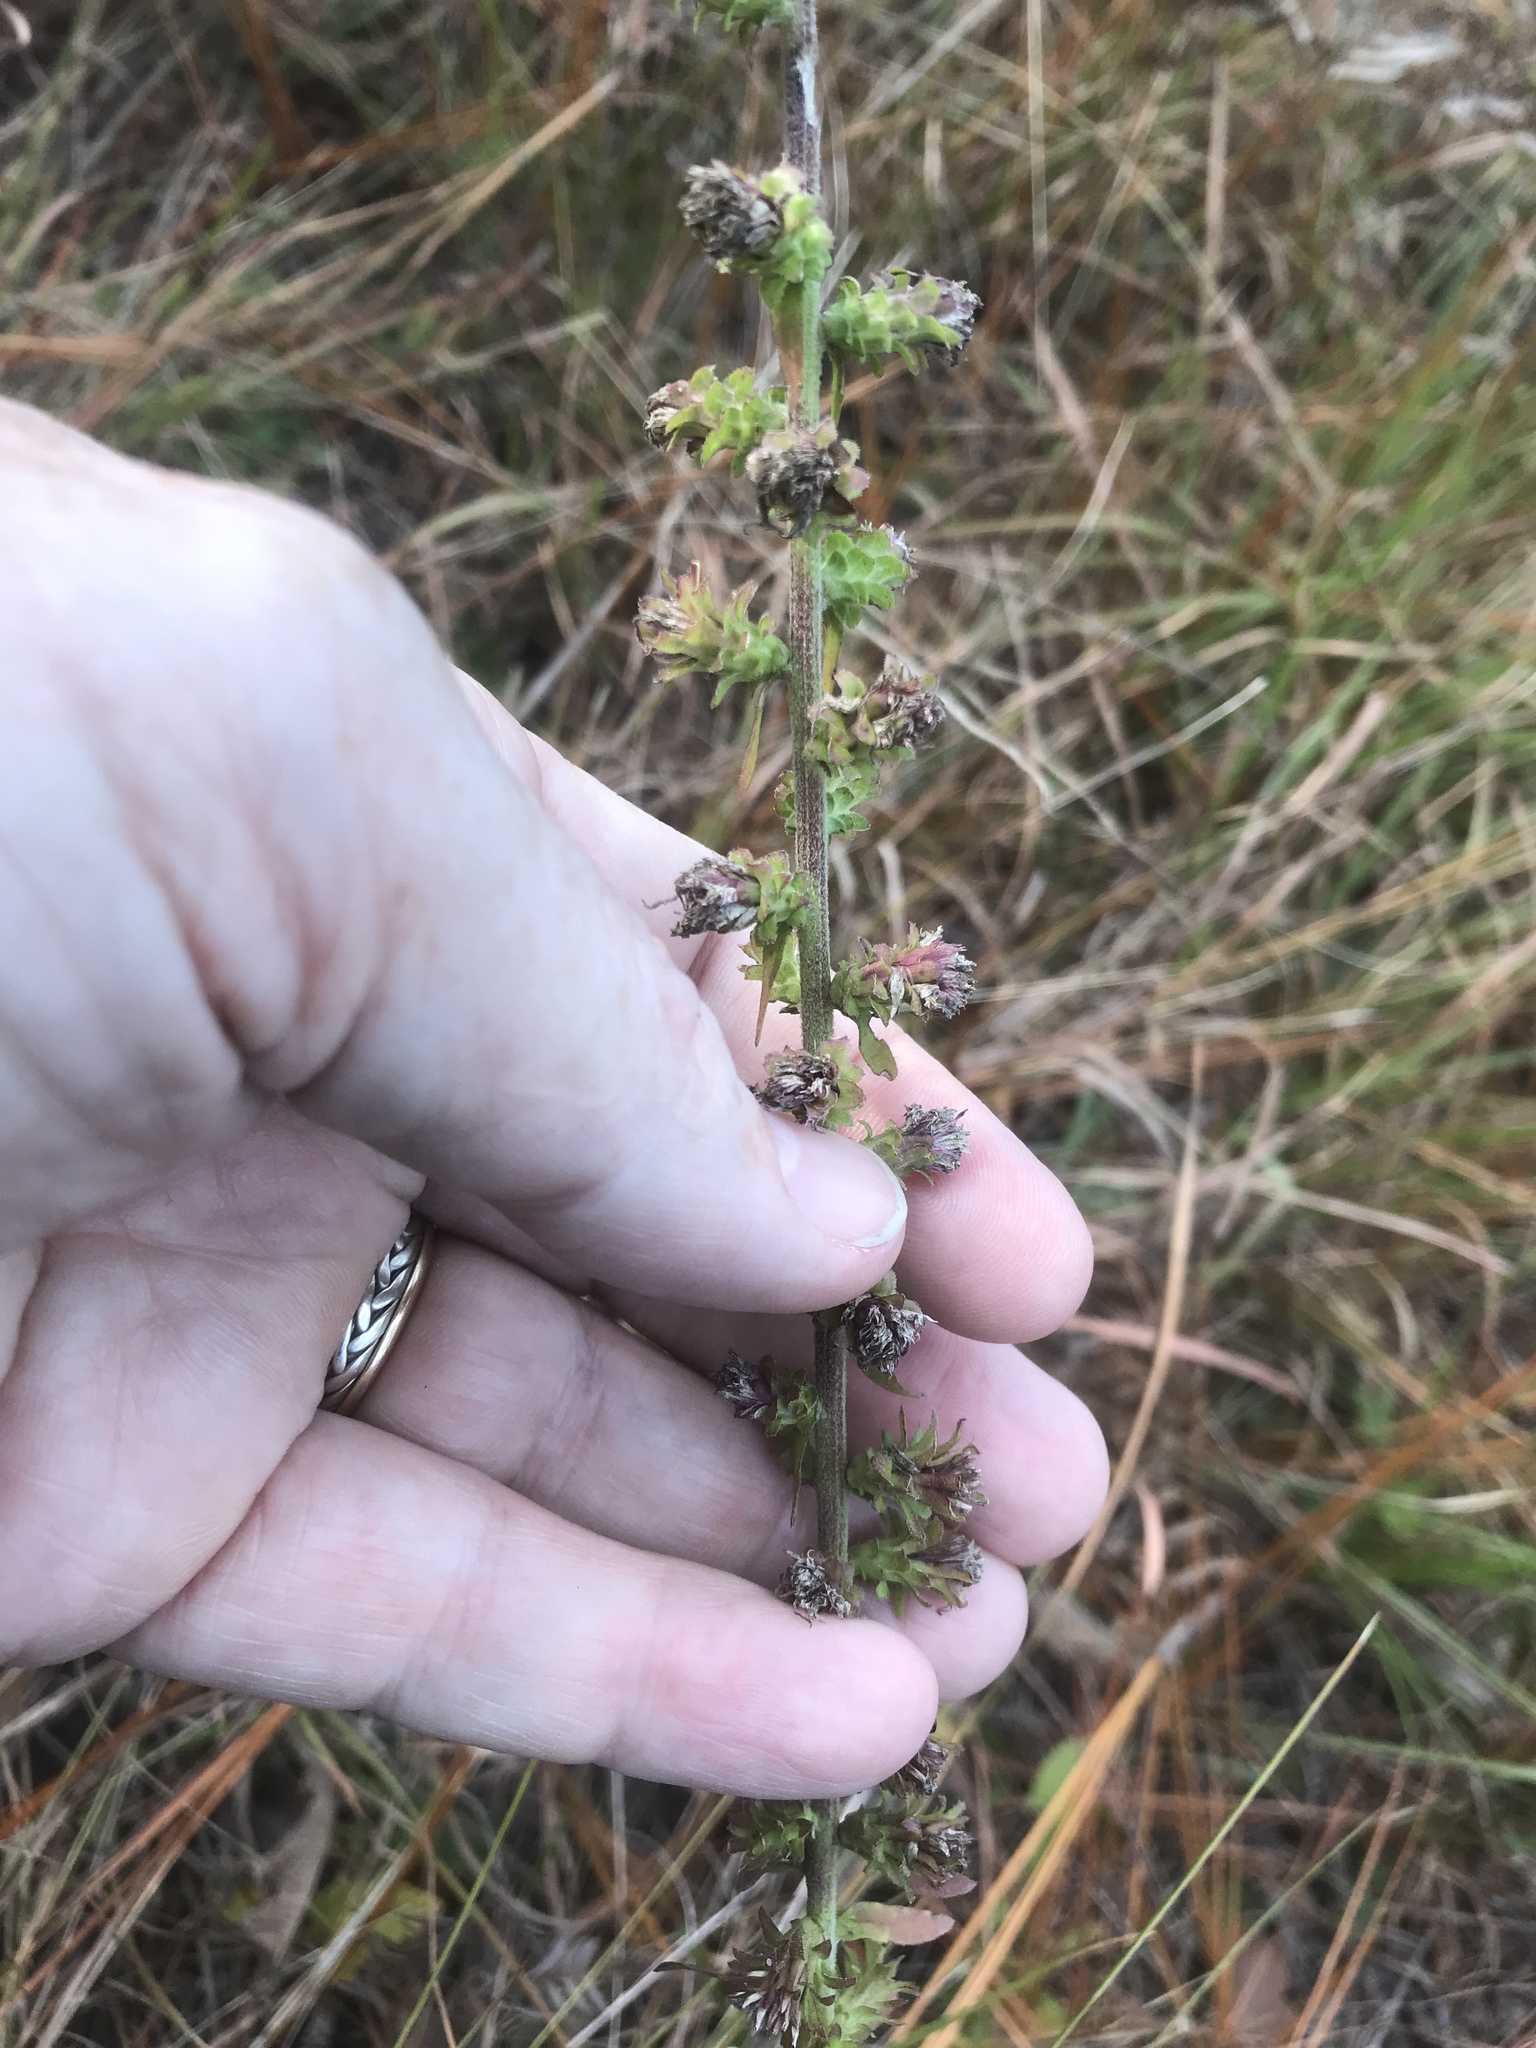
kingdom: Plantae
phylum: Tracheophyta
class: Magnoliopsida
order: Asterales
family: Asteraceae
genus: Liatris
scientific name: Liatris squarrulosa
